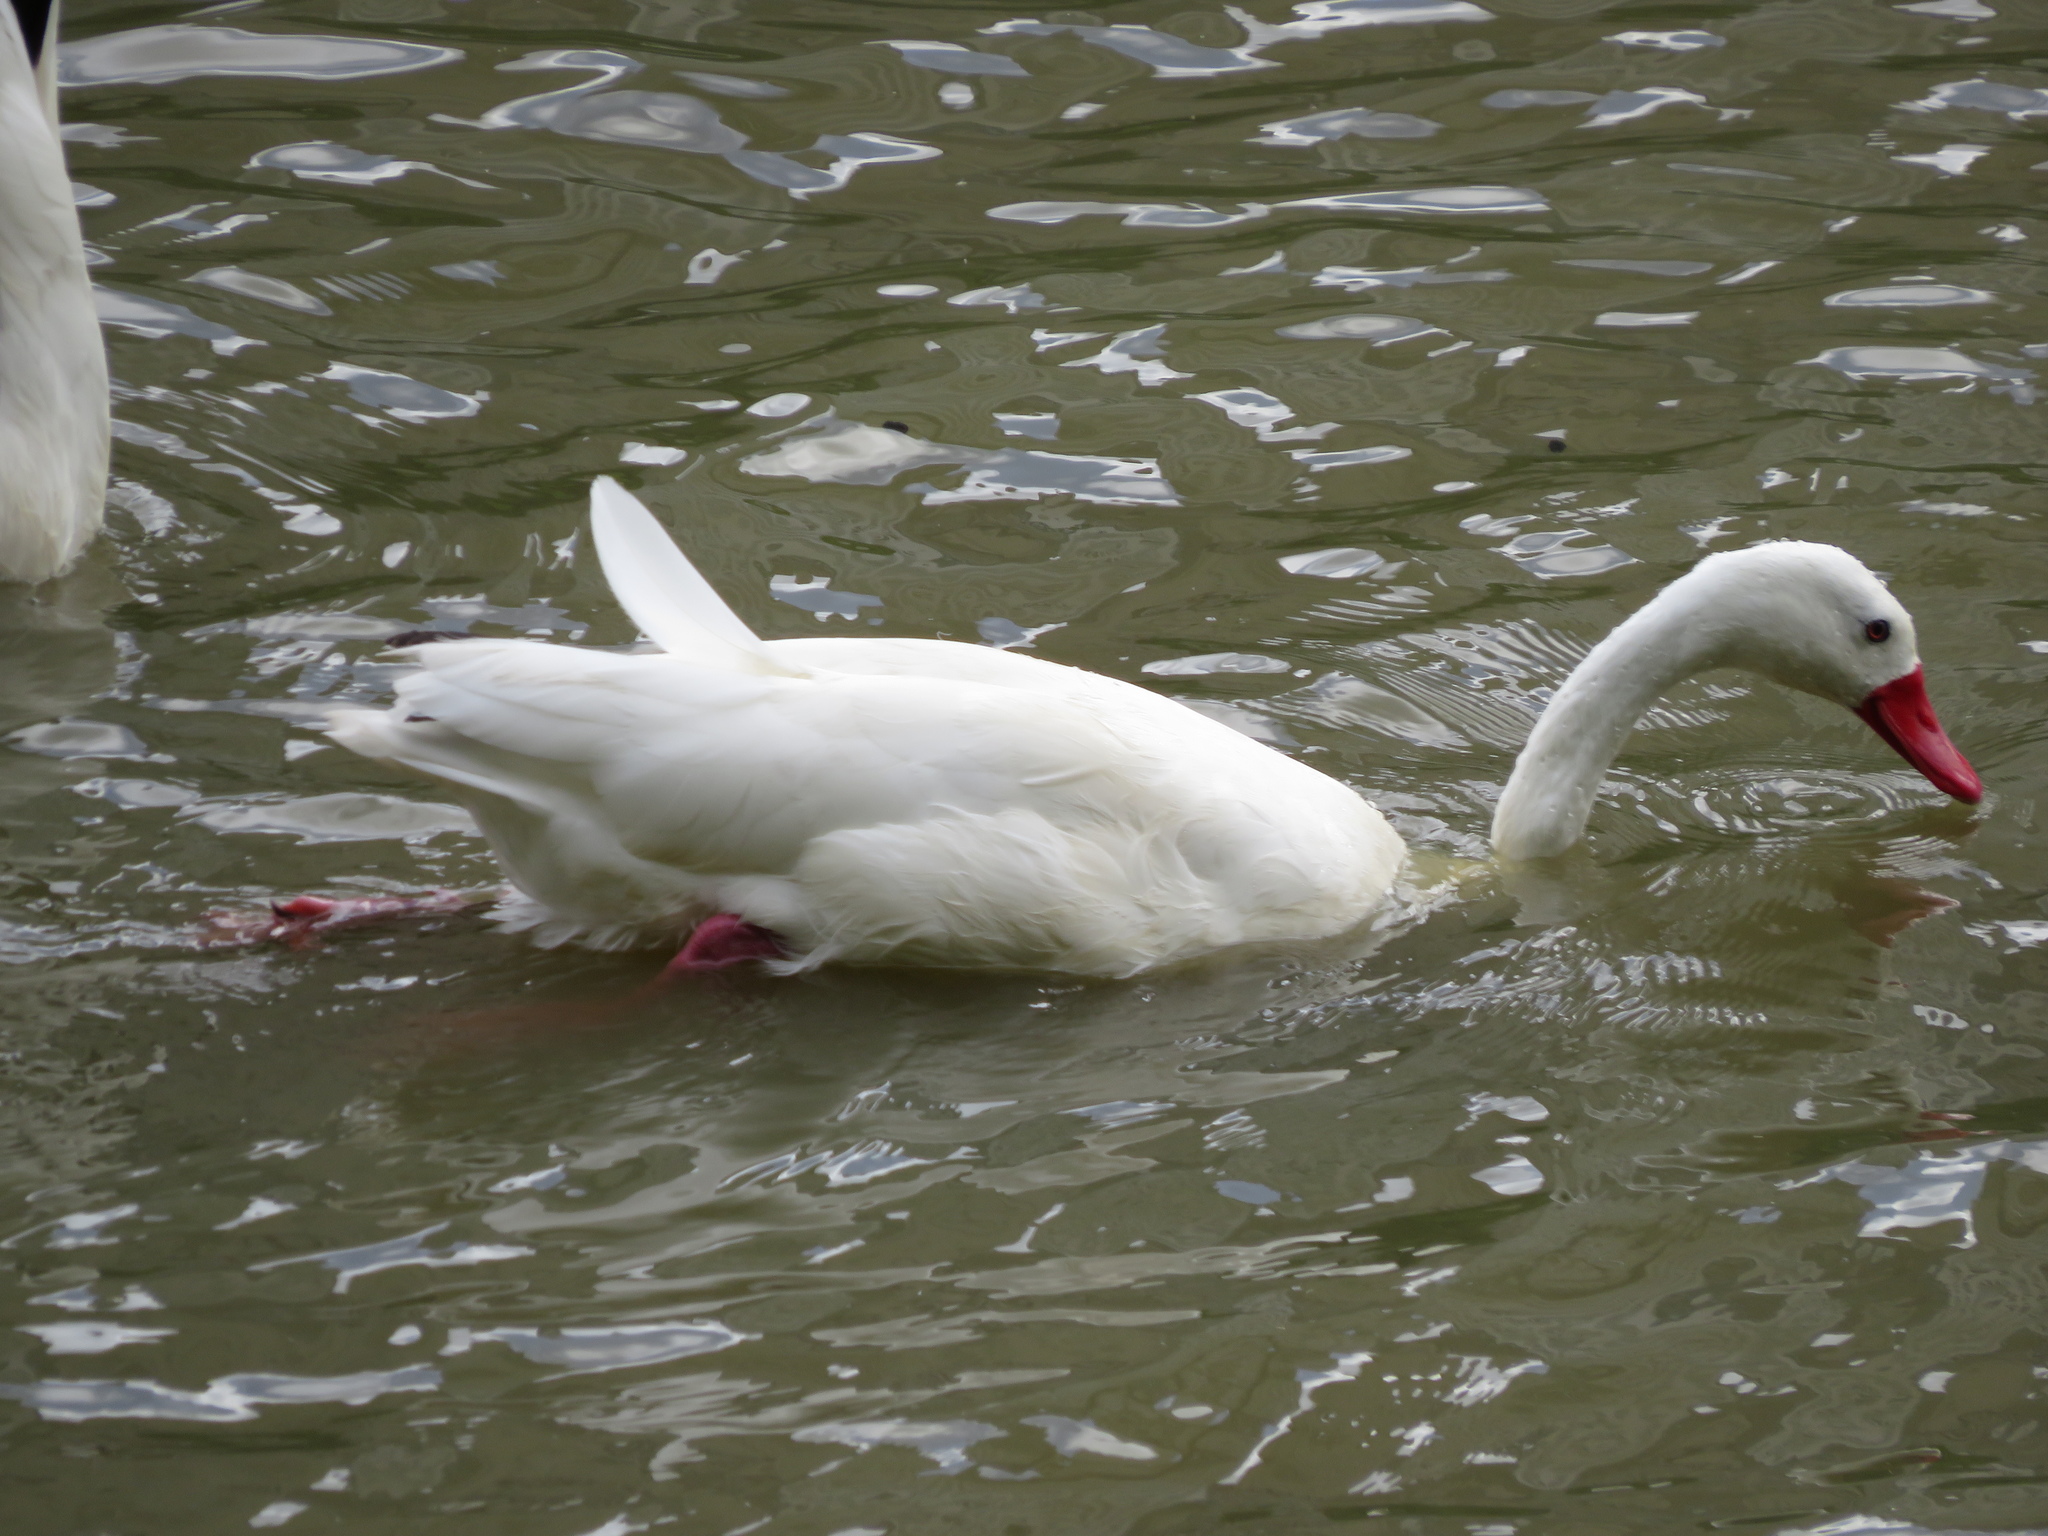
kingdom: Animalia
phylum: Chordata
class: Aves
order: Anseriformes
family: Anatidae
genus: Coscoroba
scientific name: Coscoroba coscoroba
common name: Coscoroba swan
